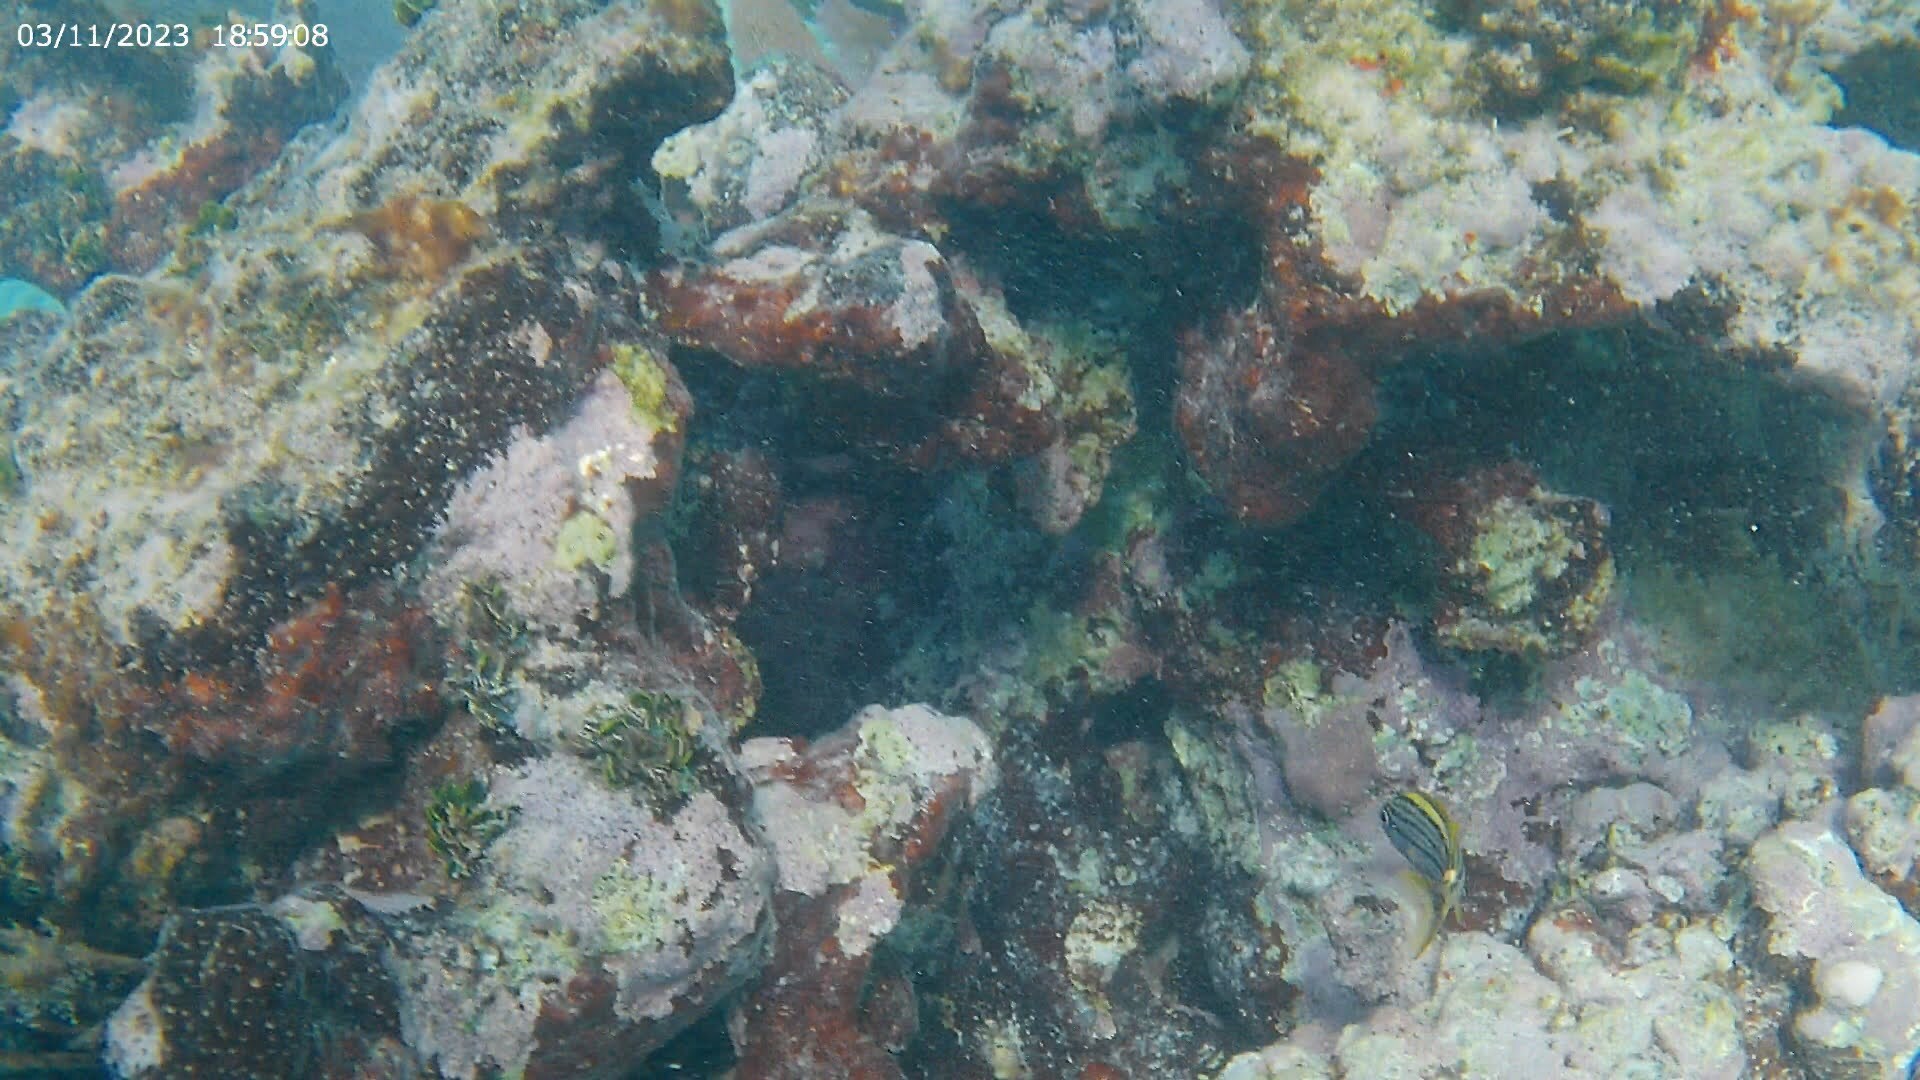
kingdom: Animalia
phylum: Chordata
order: Perciformes
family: Haemulidae
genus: Haemulon
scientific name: Haemulon macrostomum
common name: Spanish grunt
